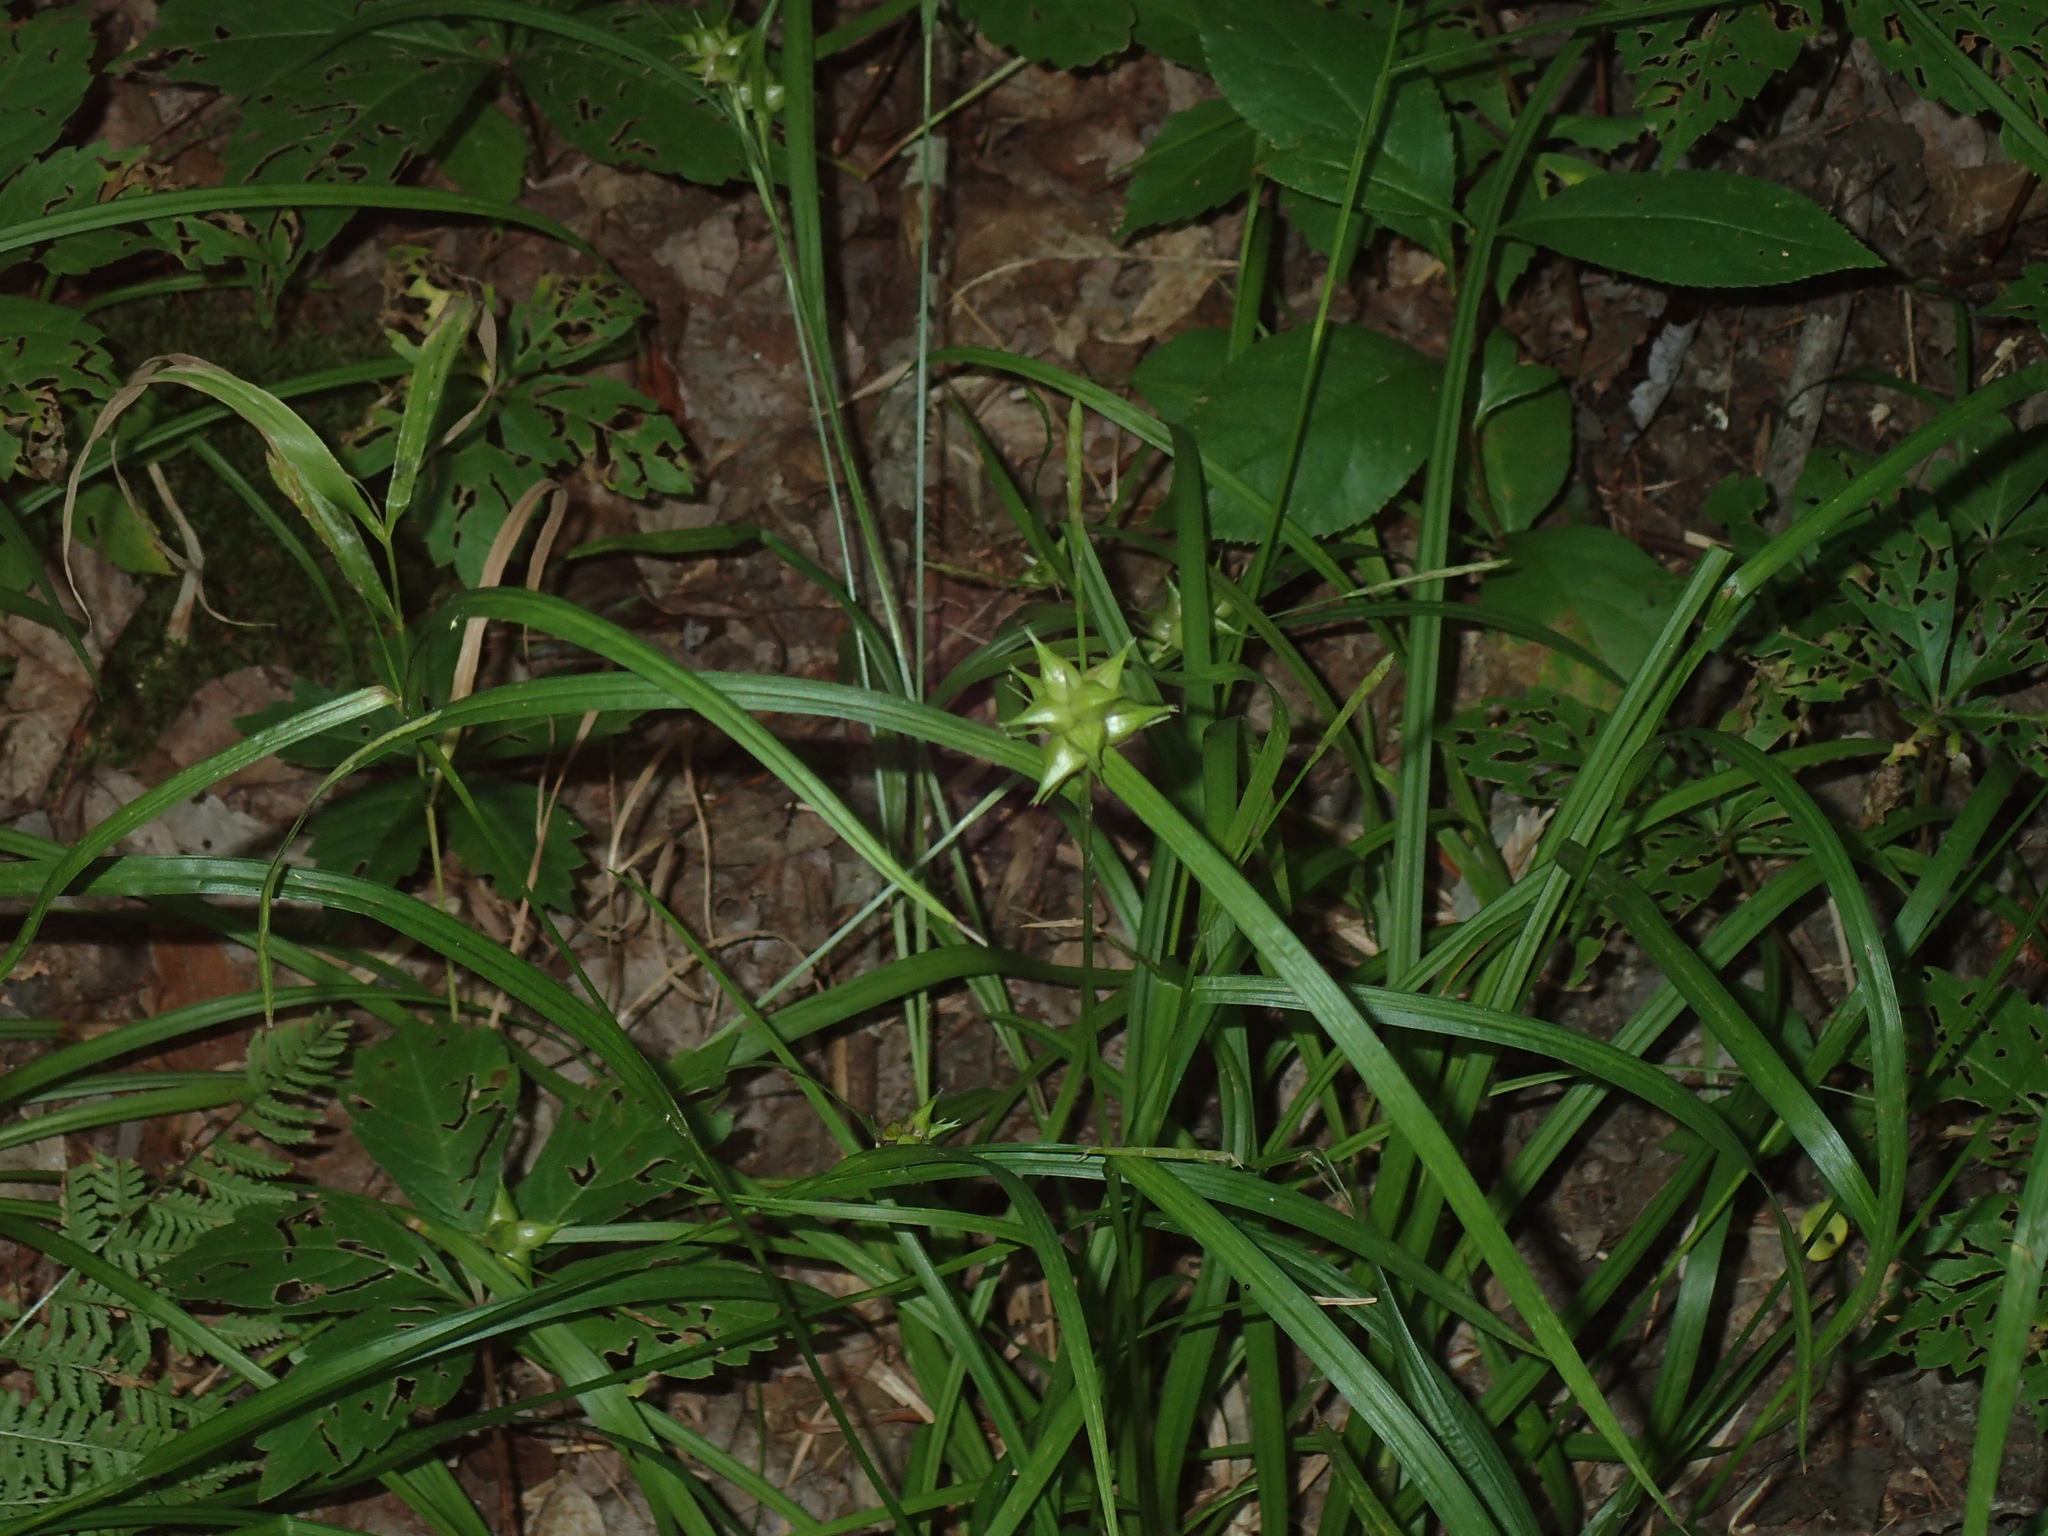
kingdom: Plantae
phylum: Tracheophyta
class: Liliopsida
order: Poales
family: Cyperaceae
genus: Carex
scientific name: Carex intumescens
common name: Greater bladder sedge
